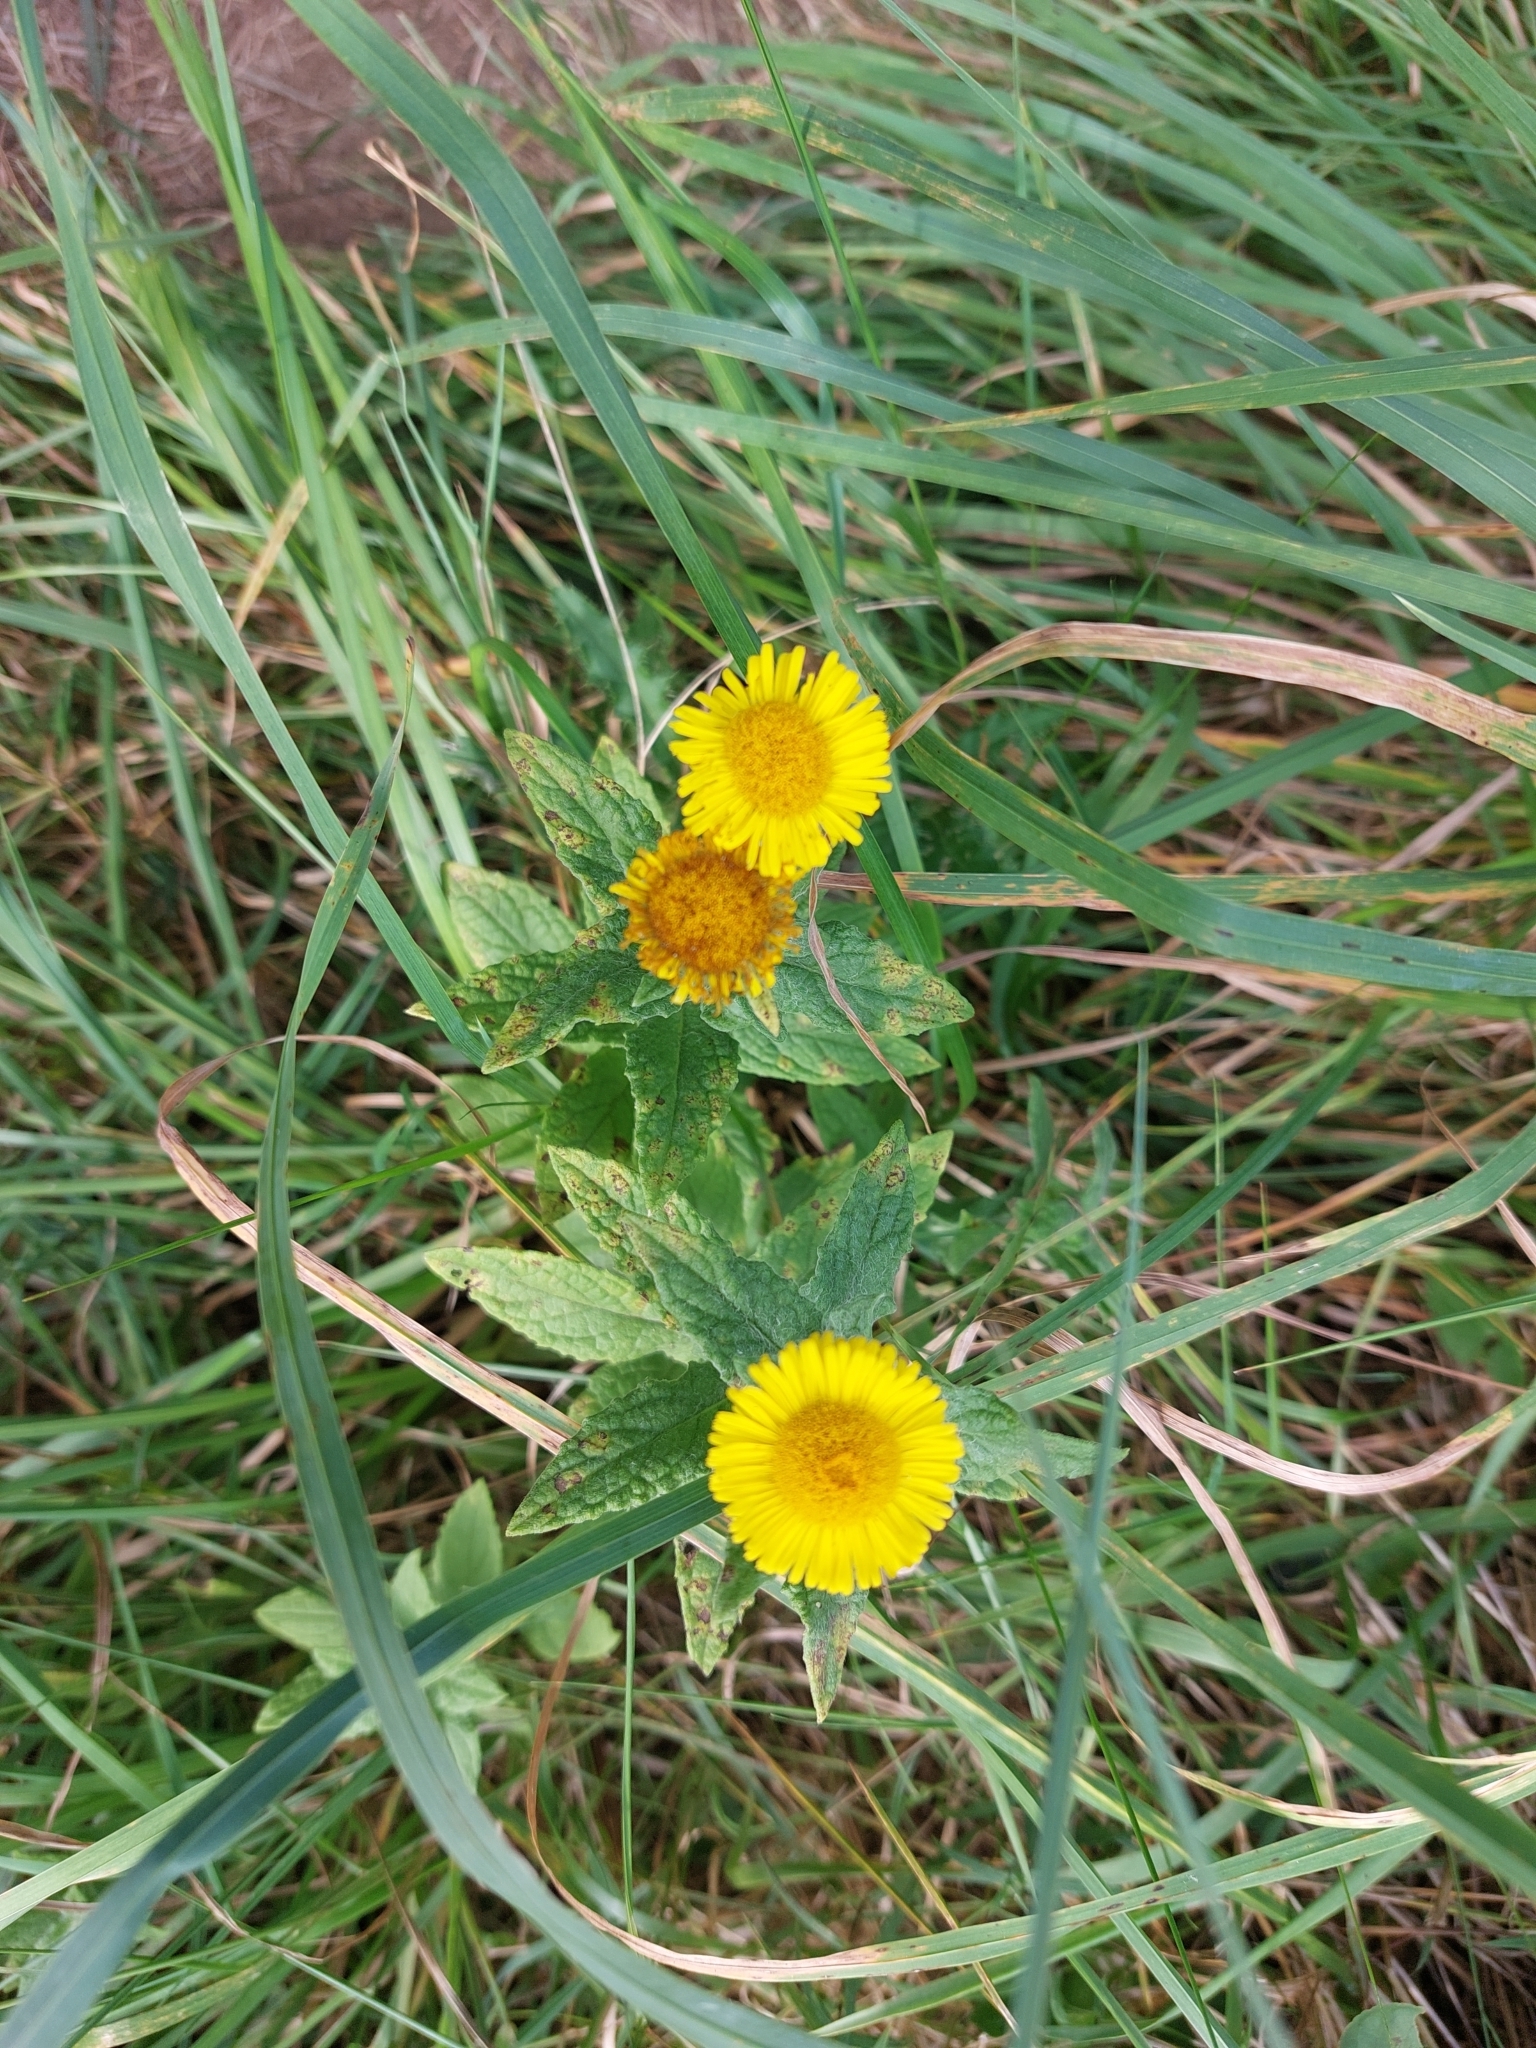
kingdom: Plantae
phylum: Tracheophyta
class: Magnoliopsida
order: Asterales
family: Asteraceae
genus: Pulicaria
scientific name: Pulicaria dysenterica
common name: Common fleabane
